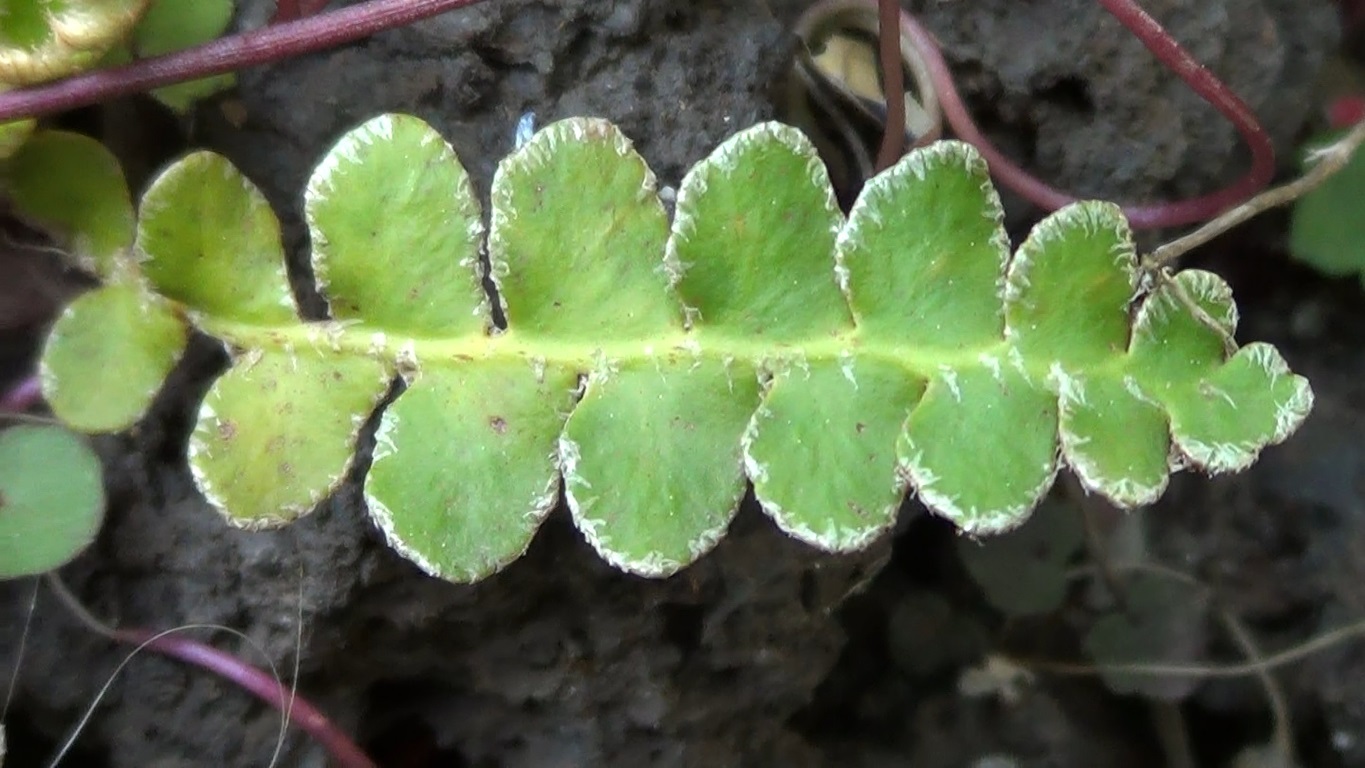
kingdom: Plantae
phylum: Tracheophyta
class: Polypodiopsida
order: Polypodiales
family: Aspleniaceae
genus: Asplenium
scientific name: Asplenium ceterach
